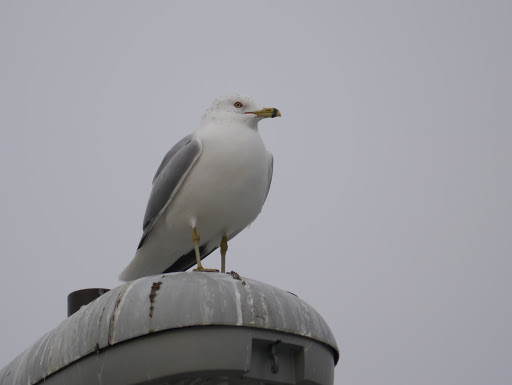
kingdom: Animalia
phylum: Chordata
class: Aves
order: Charadriiformes
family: Laridae
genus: Larus
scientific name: Larus delawarensis
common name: Ring-billed gull
